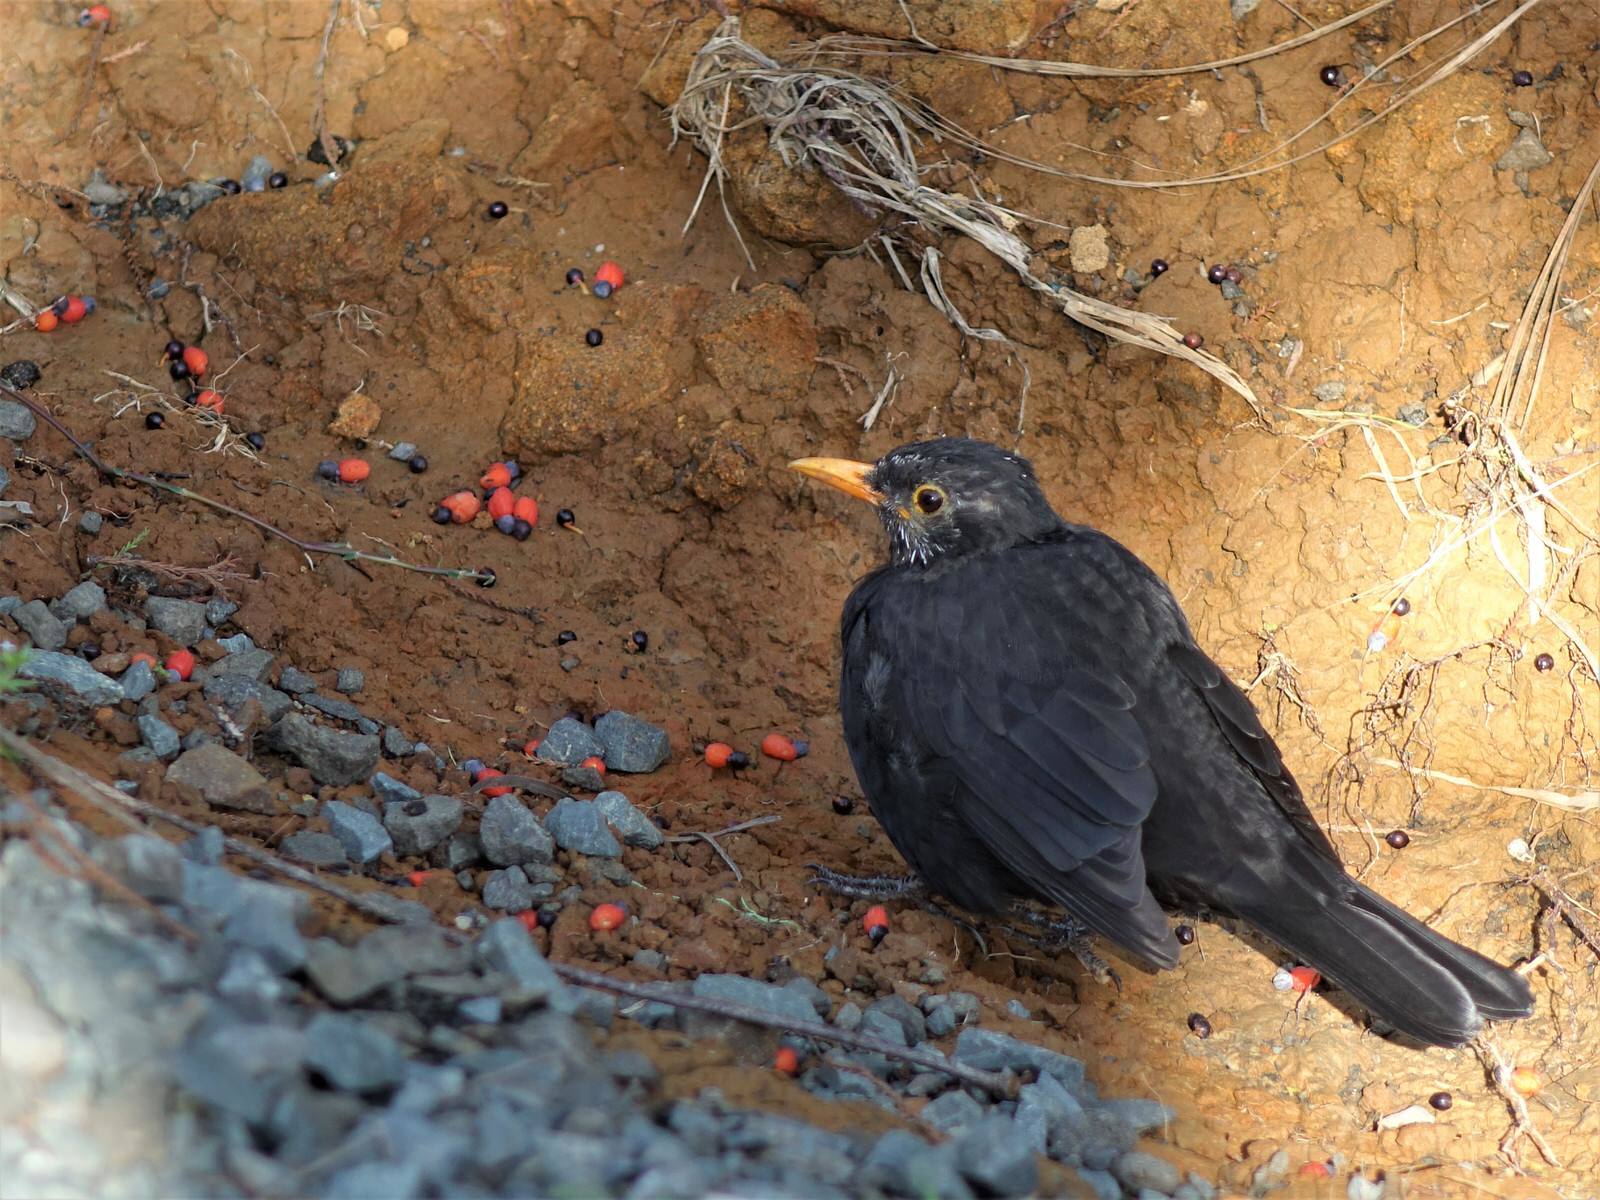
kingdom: Animalia
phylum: Chordata
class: Aves
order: Passeriformes
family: Turdidae
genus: Turdus
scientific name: Turdus merula
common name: Common blackbird
